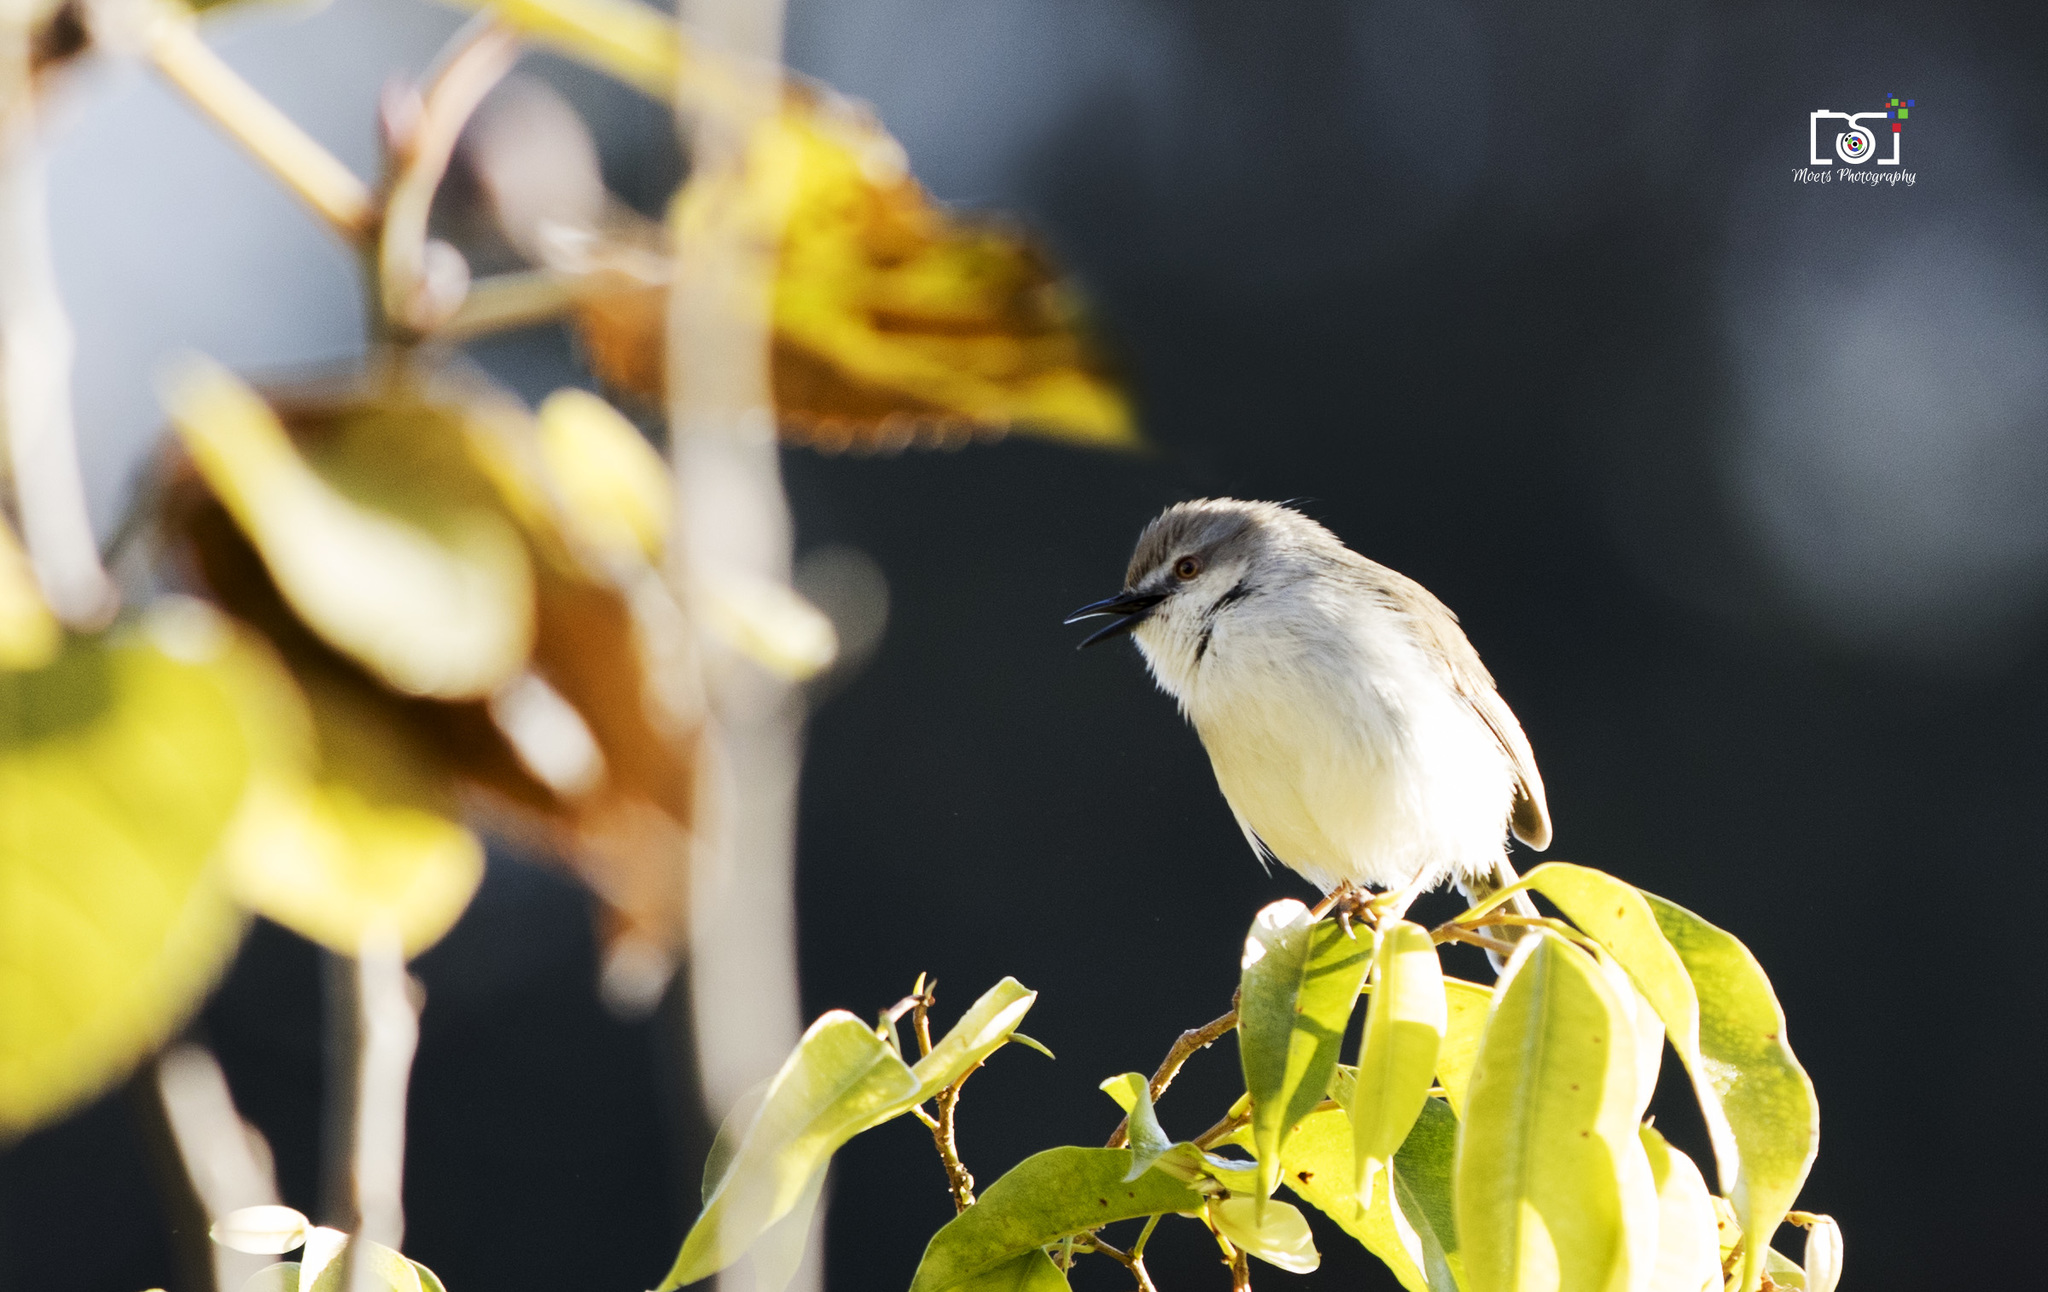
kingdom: Animalia
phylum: Chordata
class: Aves
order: Passeriformes
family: Cisticolidae
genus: Prinia
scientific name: Prinia socialis
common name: Ashy prinia
